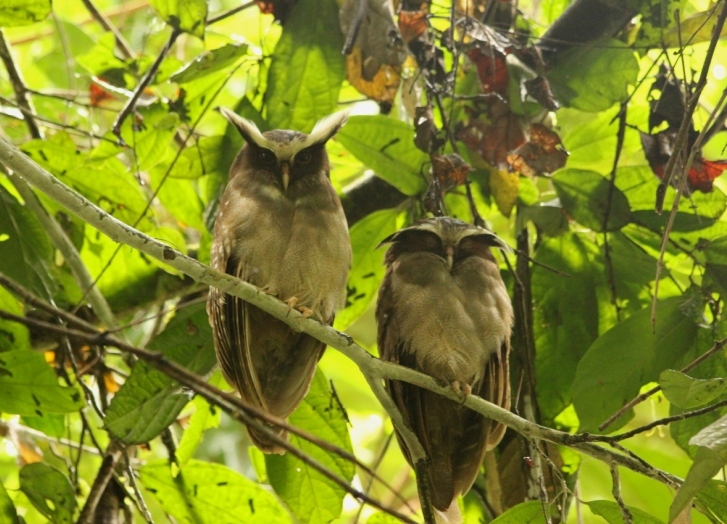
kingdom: Animalia
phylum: Chordata
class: Aves
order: Strigiformes
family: Strigidae
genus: Lophostrix
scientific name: Lophostrix cristata
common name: Crested owl
